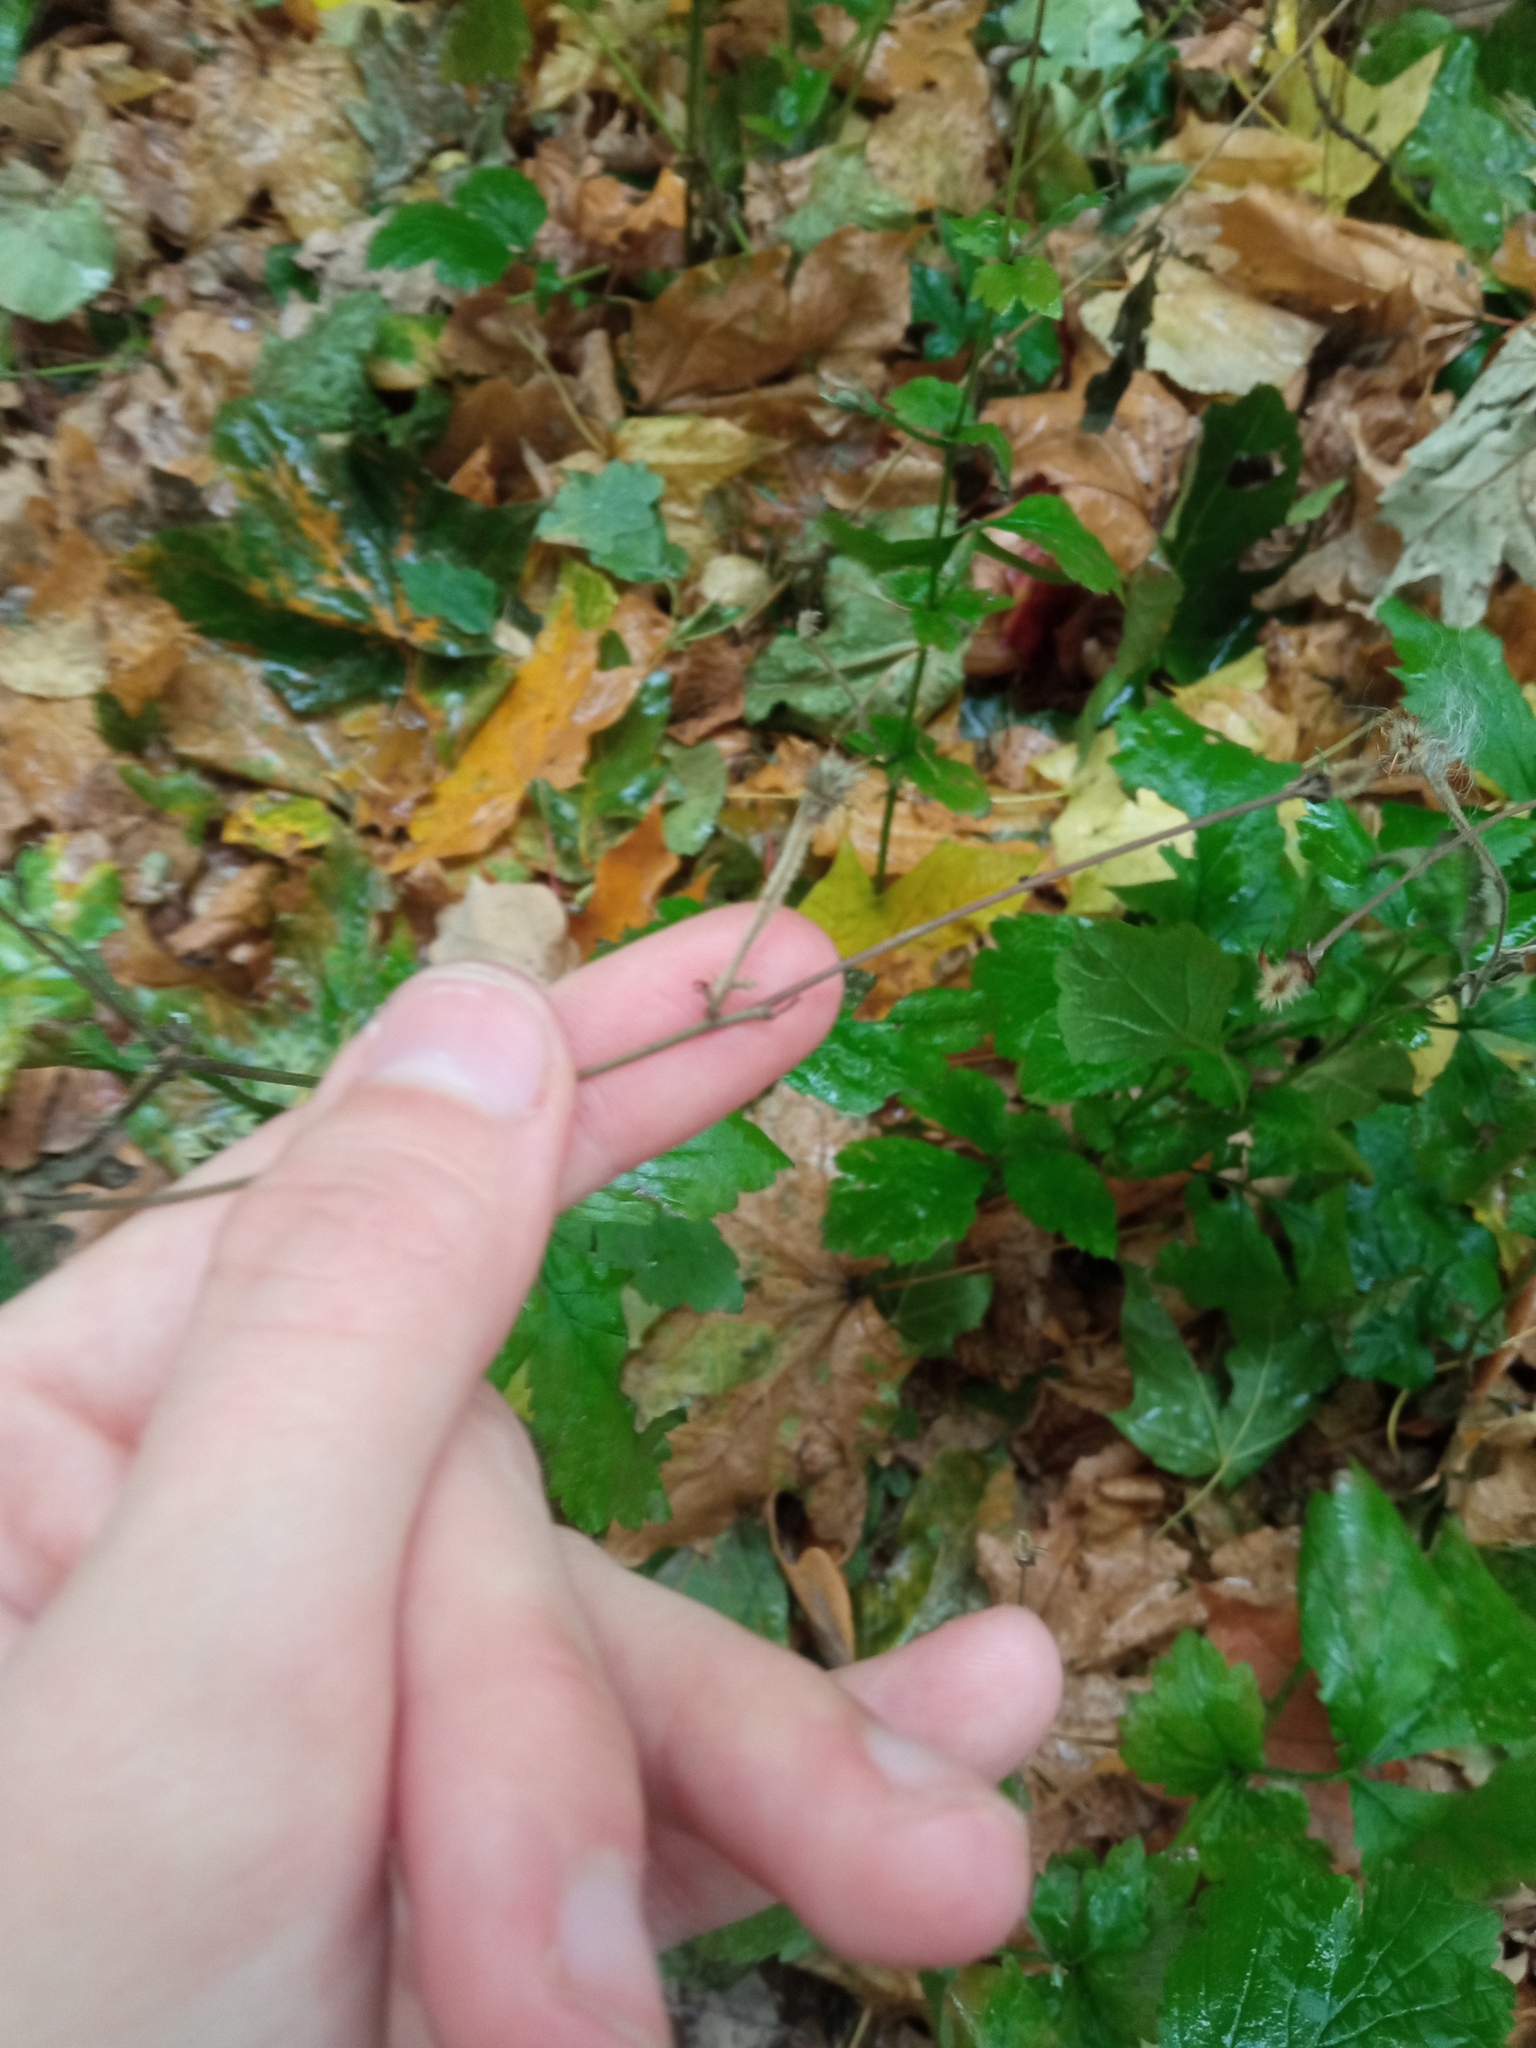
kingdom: Plantae
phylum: Tracheophyta
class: Magnoliopsida
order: Rosales
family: Rosaceae
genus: Geum
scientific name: Geum urbanum
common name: Wood avens
